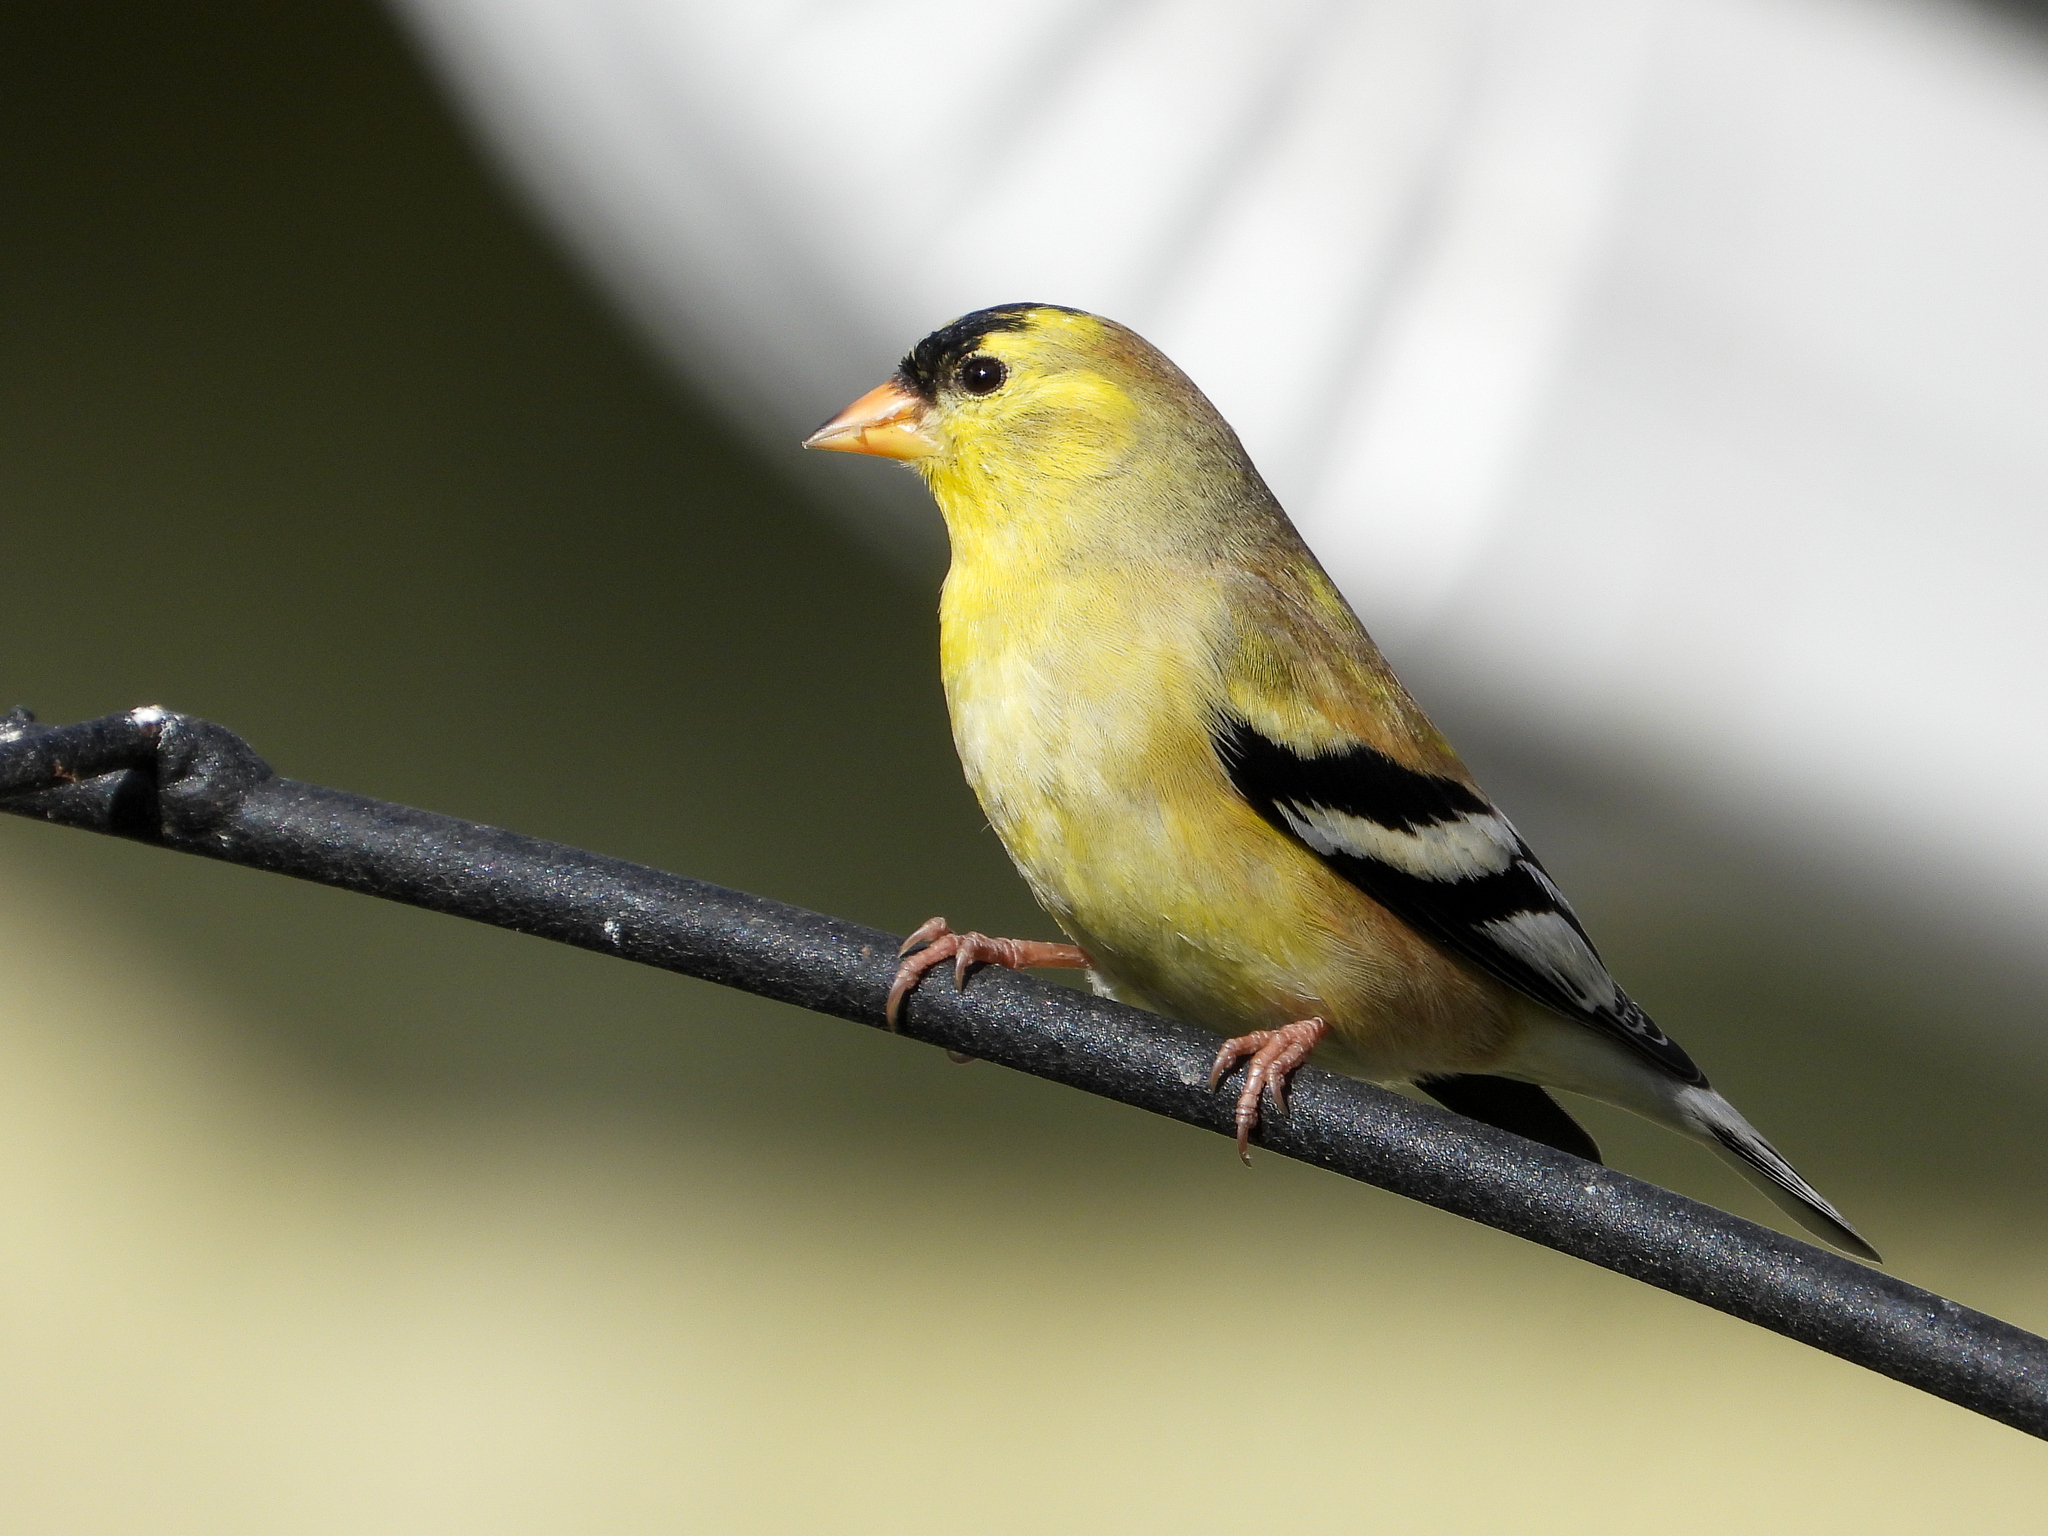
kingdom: Animalia
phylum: Chordata
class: Aves
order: Passeriformes
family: Fringillidae
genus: Spinus
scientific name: Spinus tristis
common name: American goldfinch
